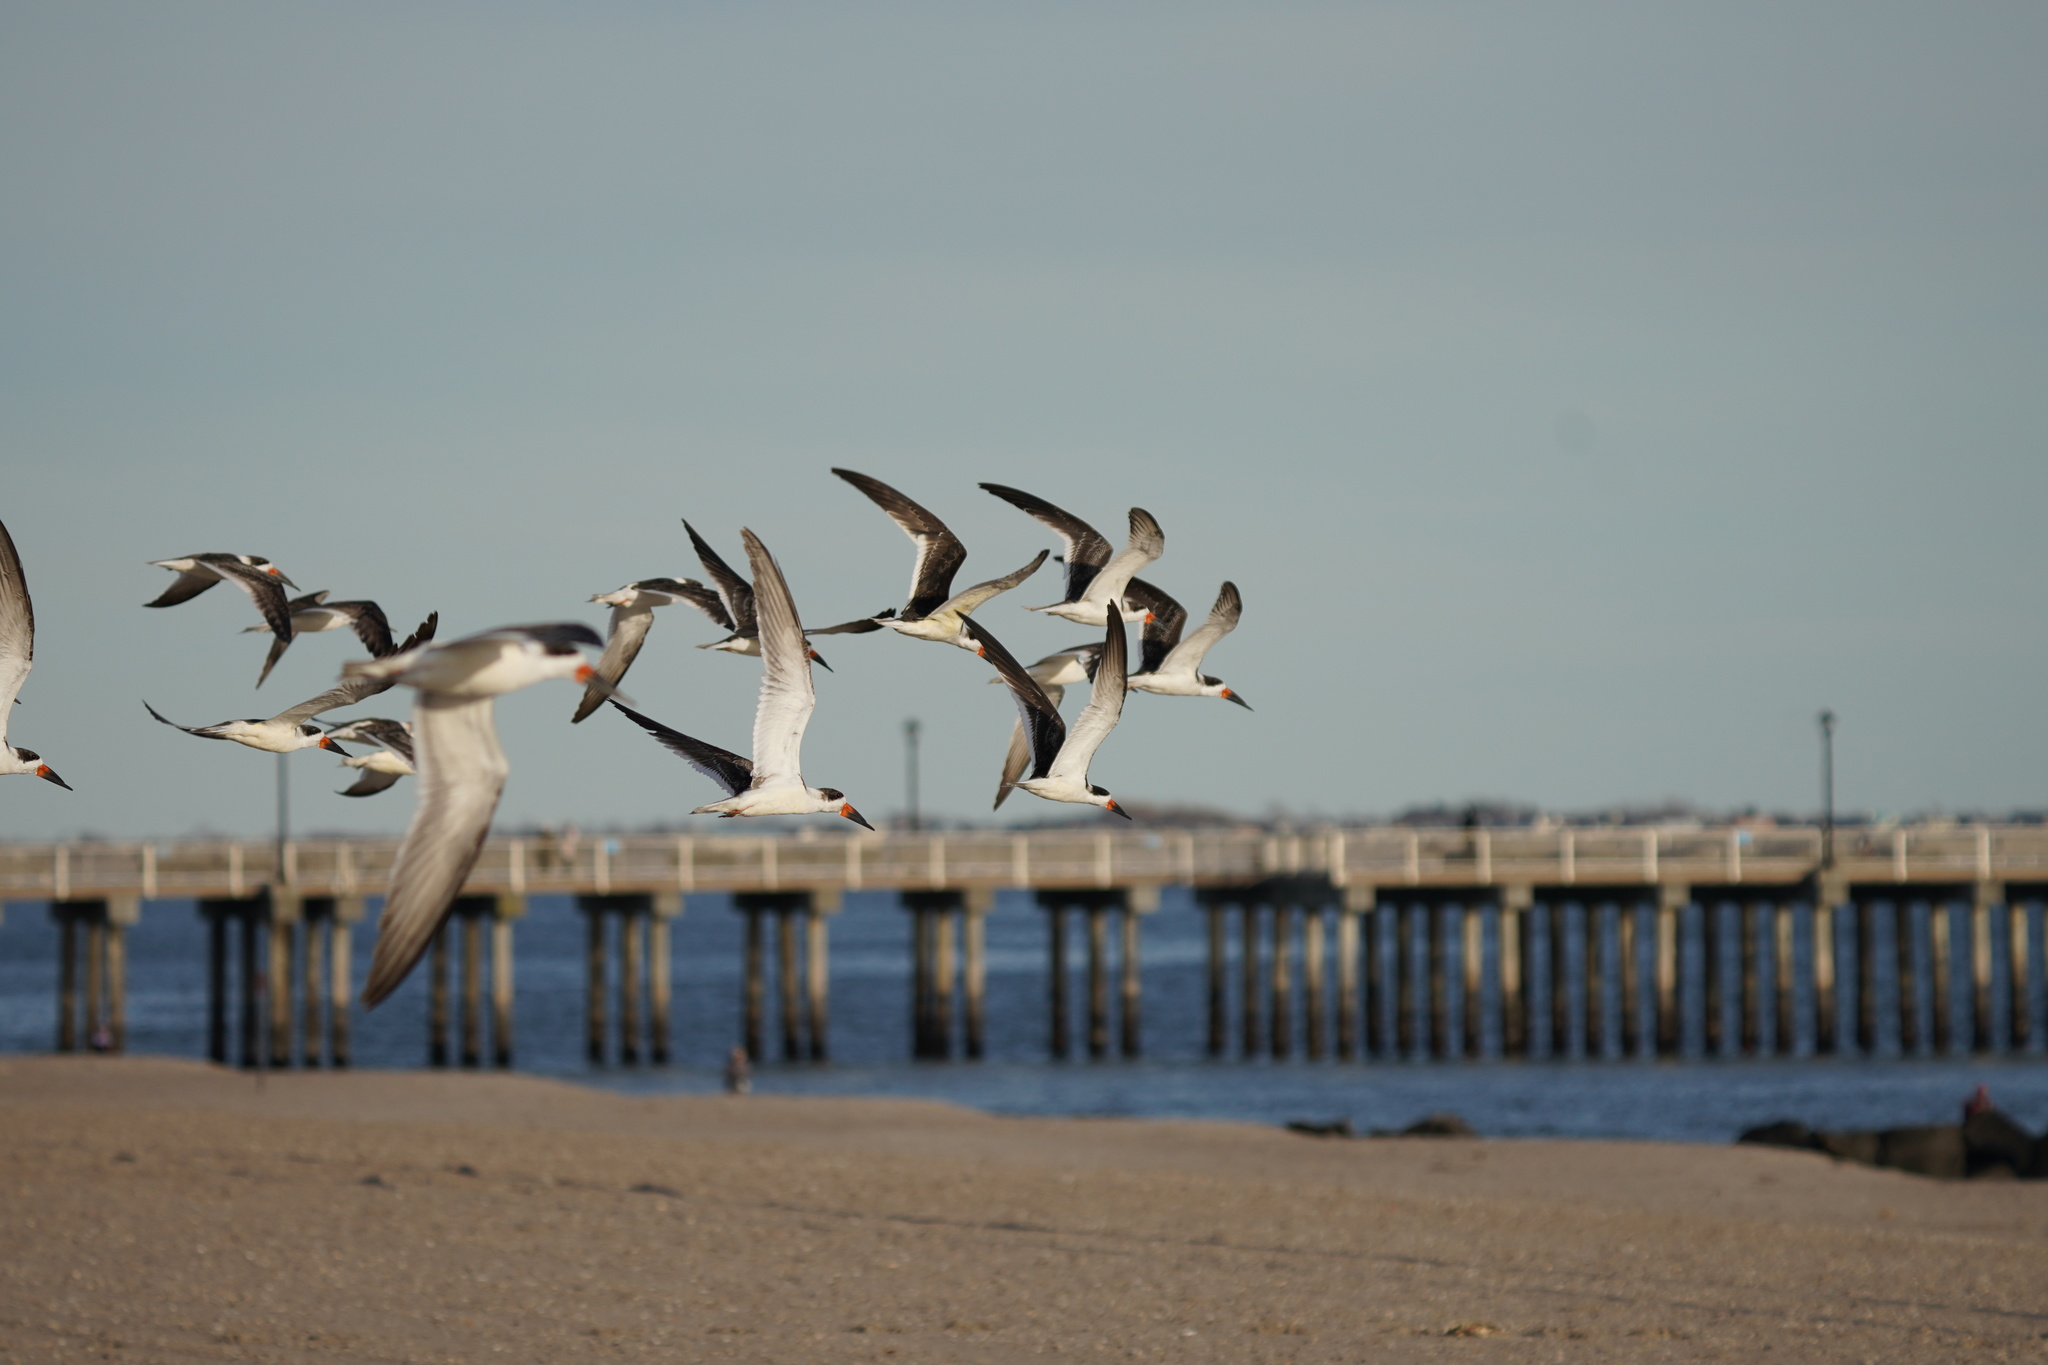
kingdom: Animalia
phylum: Chordata
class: Aves
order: Charadriiformes
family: Laridae
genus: Rynchops
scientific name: Rynchops niger
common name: Black skimmer
